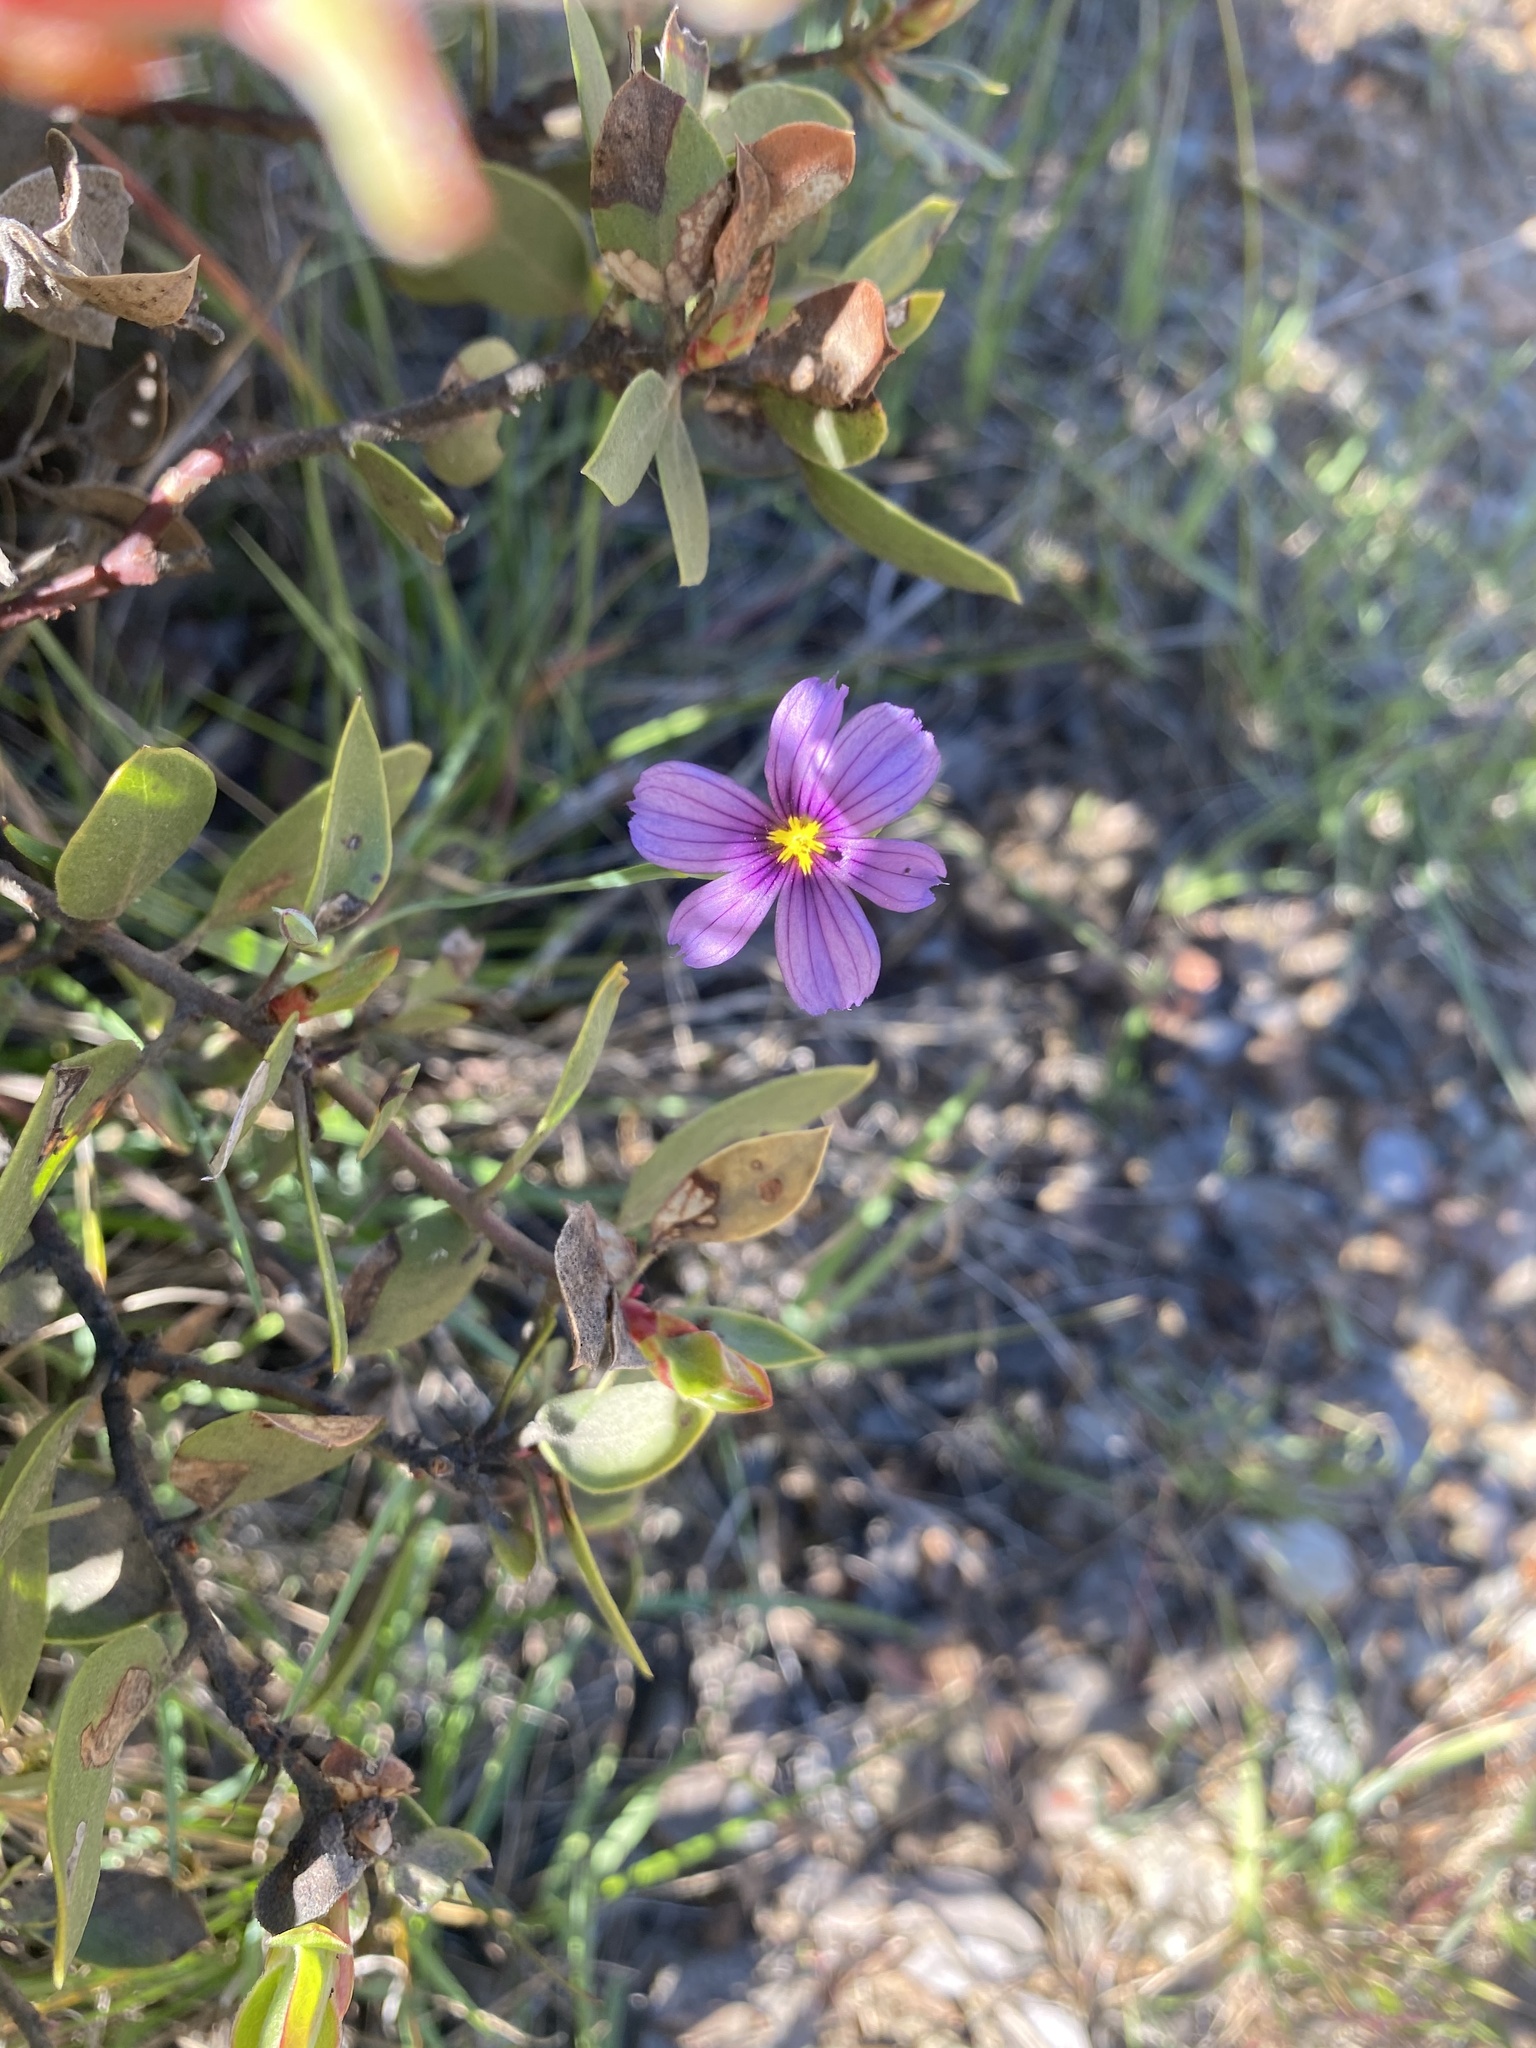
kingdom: Plantae
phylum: Tracheophyta
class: Liliopsida
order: Asparagales
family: Iridaceae
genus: Sisyrinchium
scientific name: Sisyrinchium bellum
